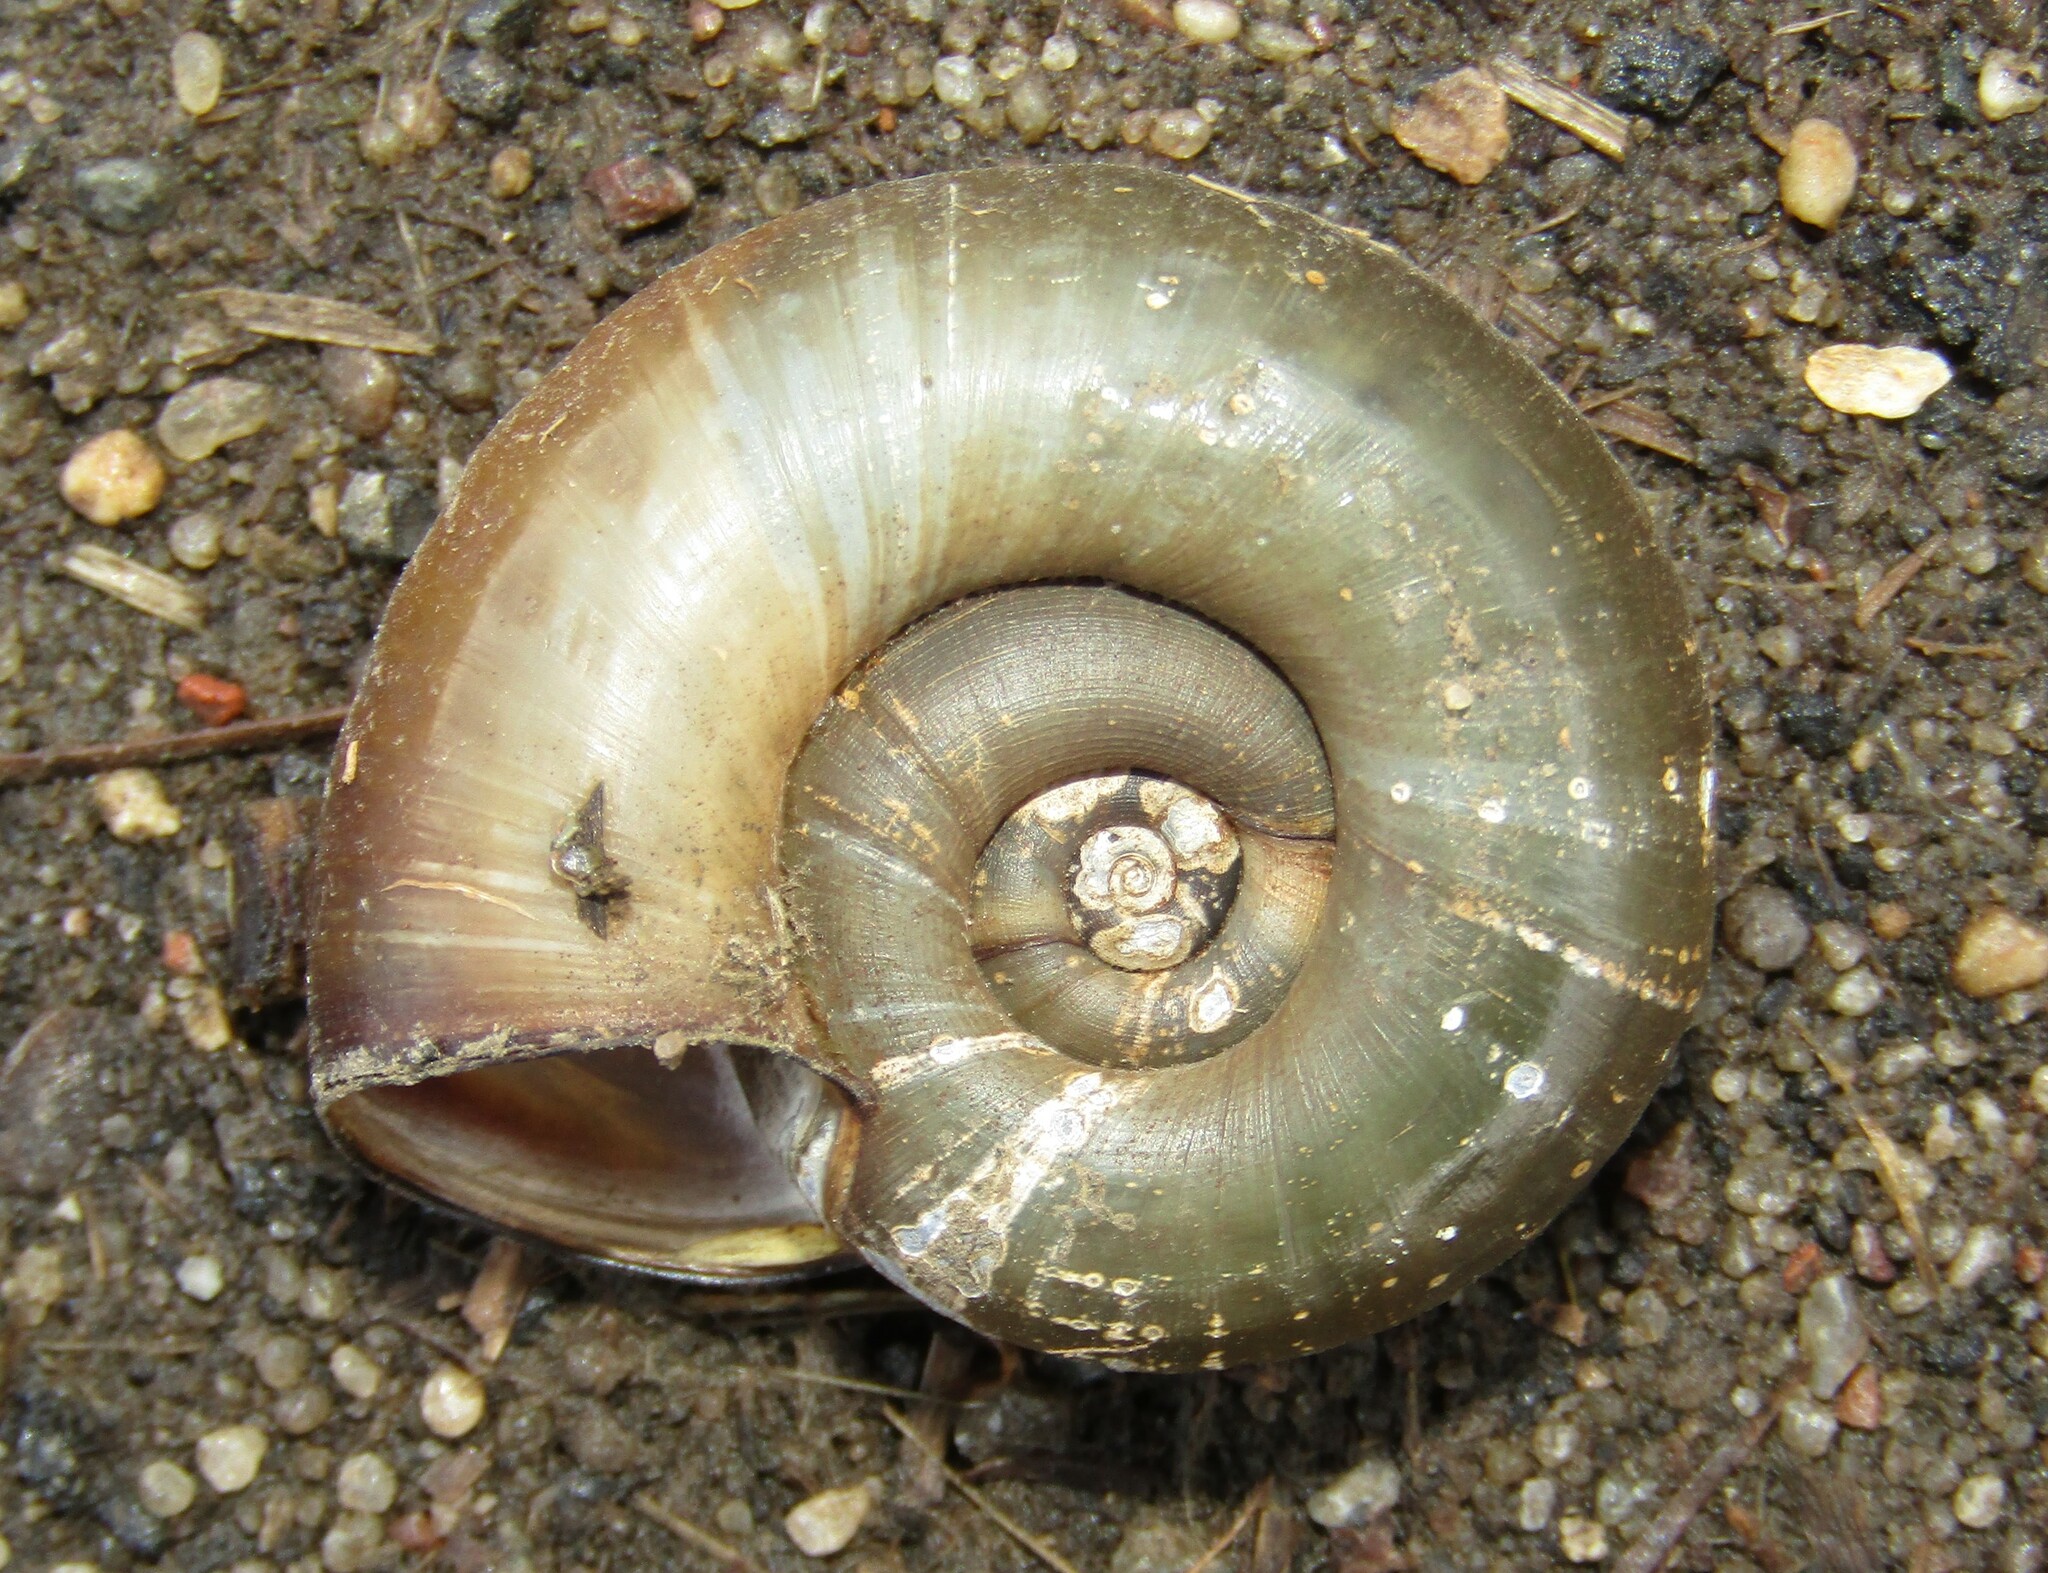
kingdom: Animalia
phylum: Mollusca
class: Gastropoda
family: Planorbidae
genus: Planorbarius
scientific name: Planorbarius corneus
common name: Great ramshorn
